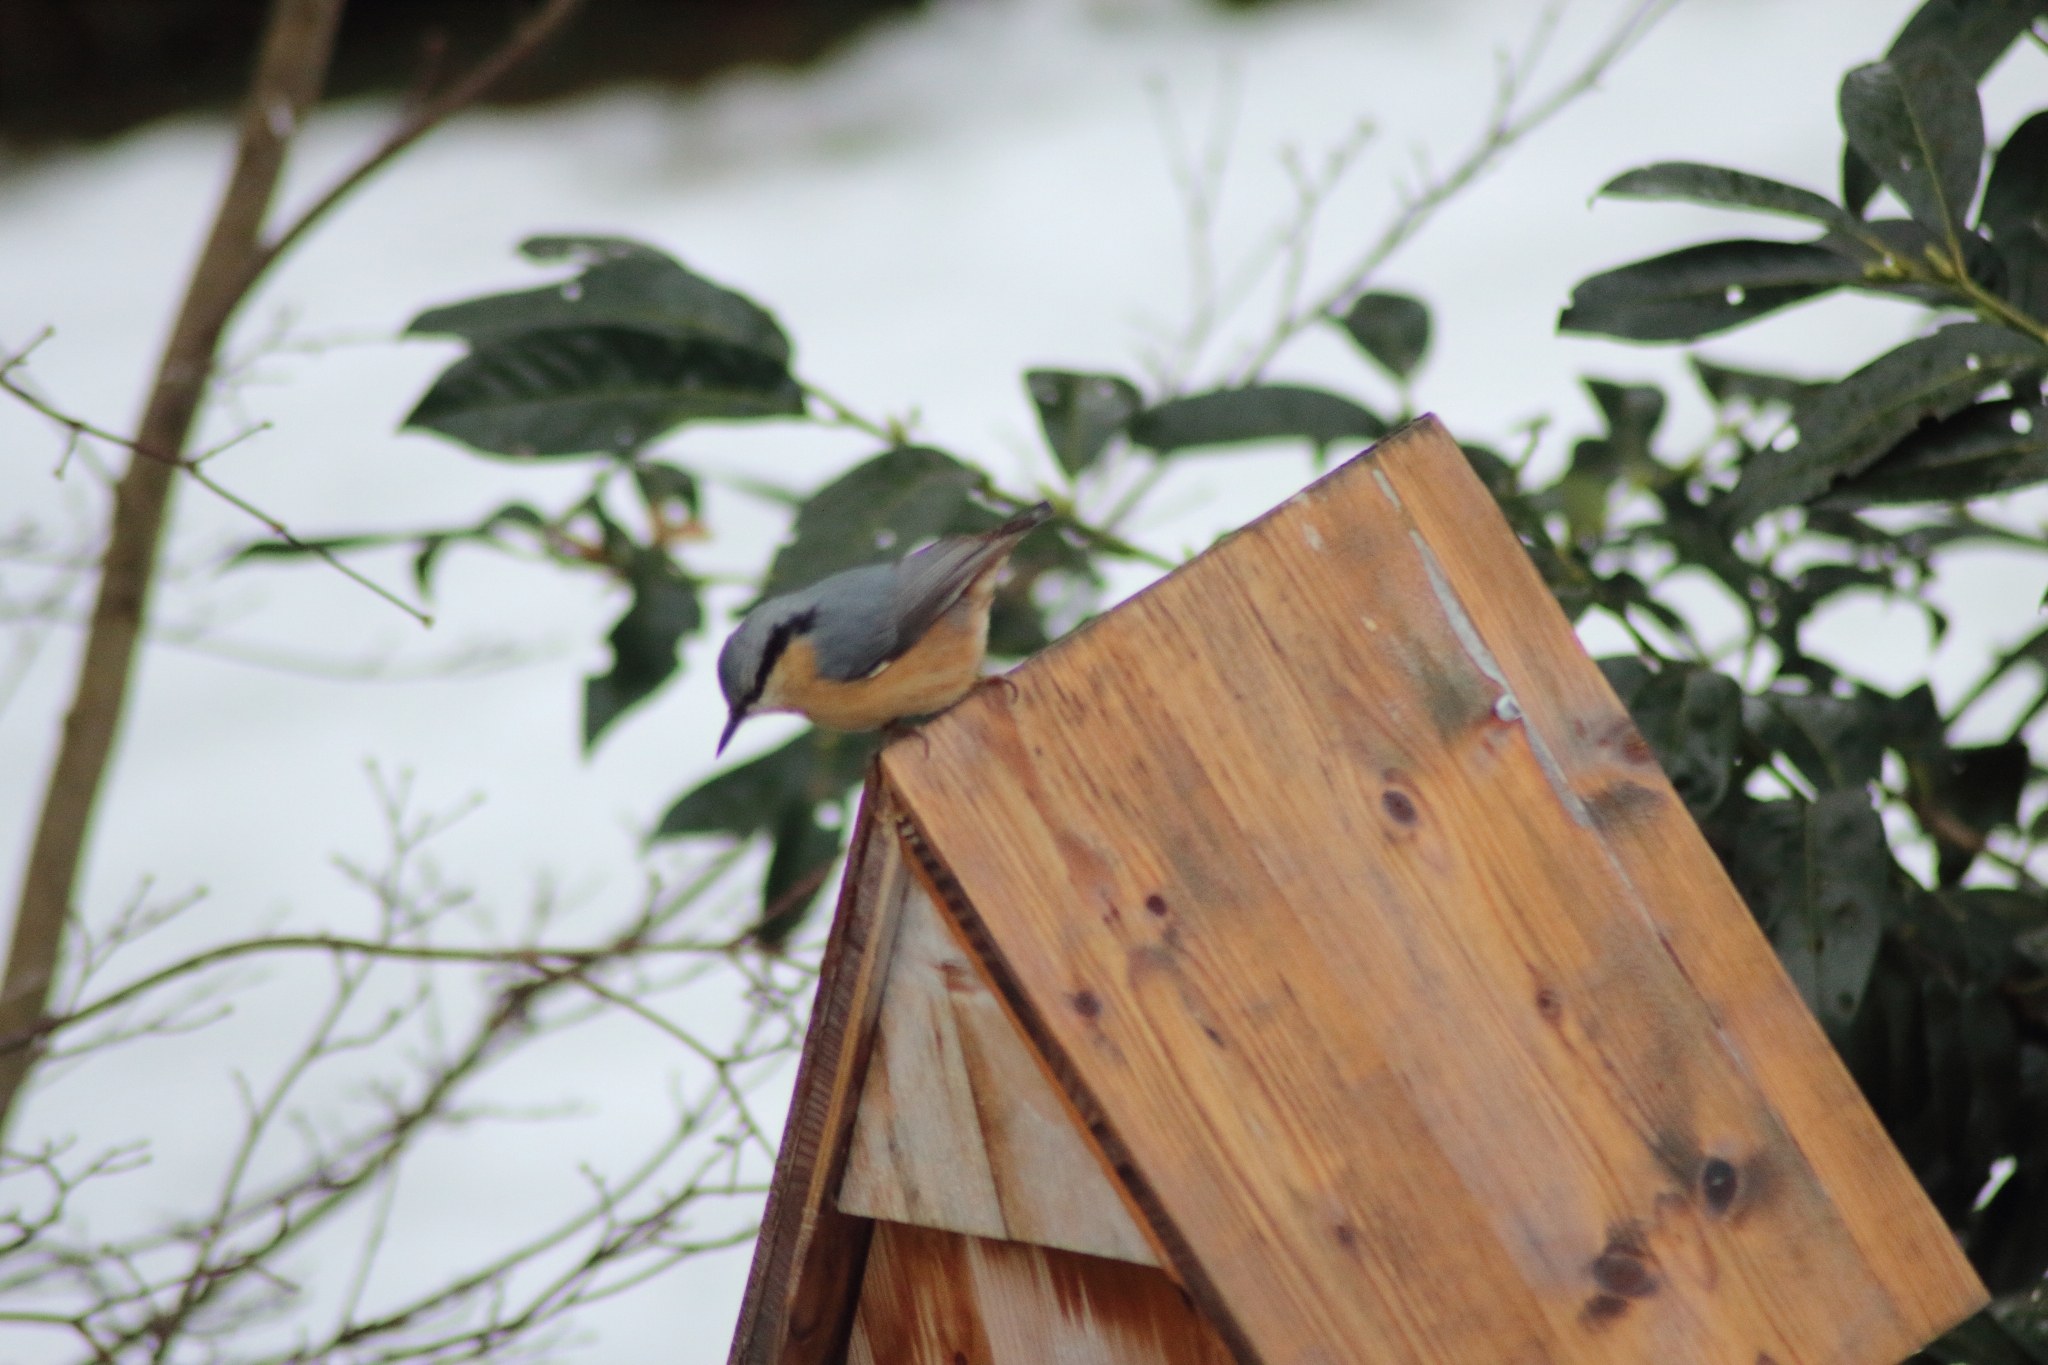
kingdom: Animalia
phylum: Chordata
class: Aves
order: Passeriformes
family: Sittidae
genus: Sitta
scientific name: Sitta europaea
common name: Eurasian nuthatch
